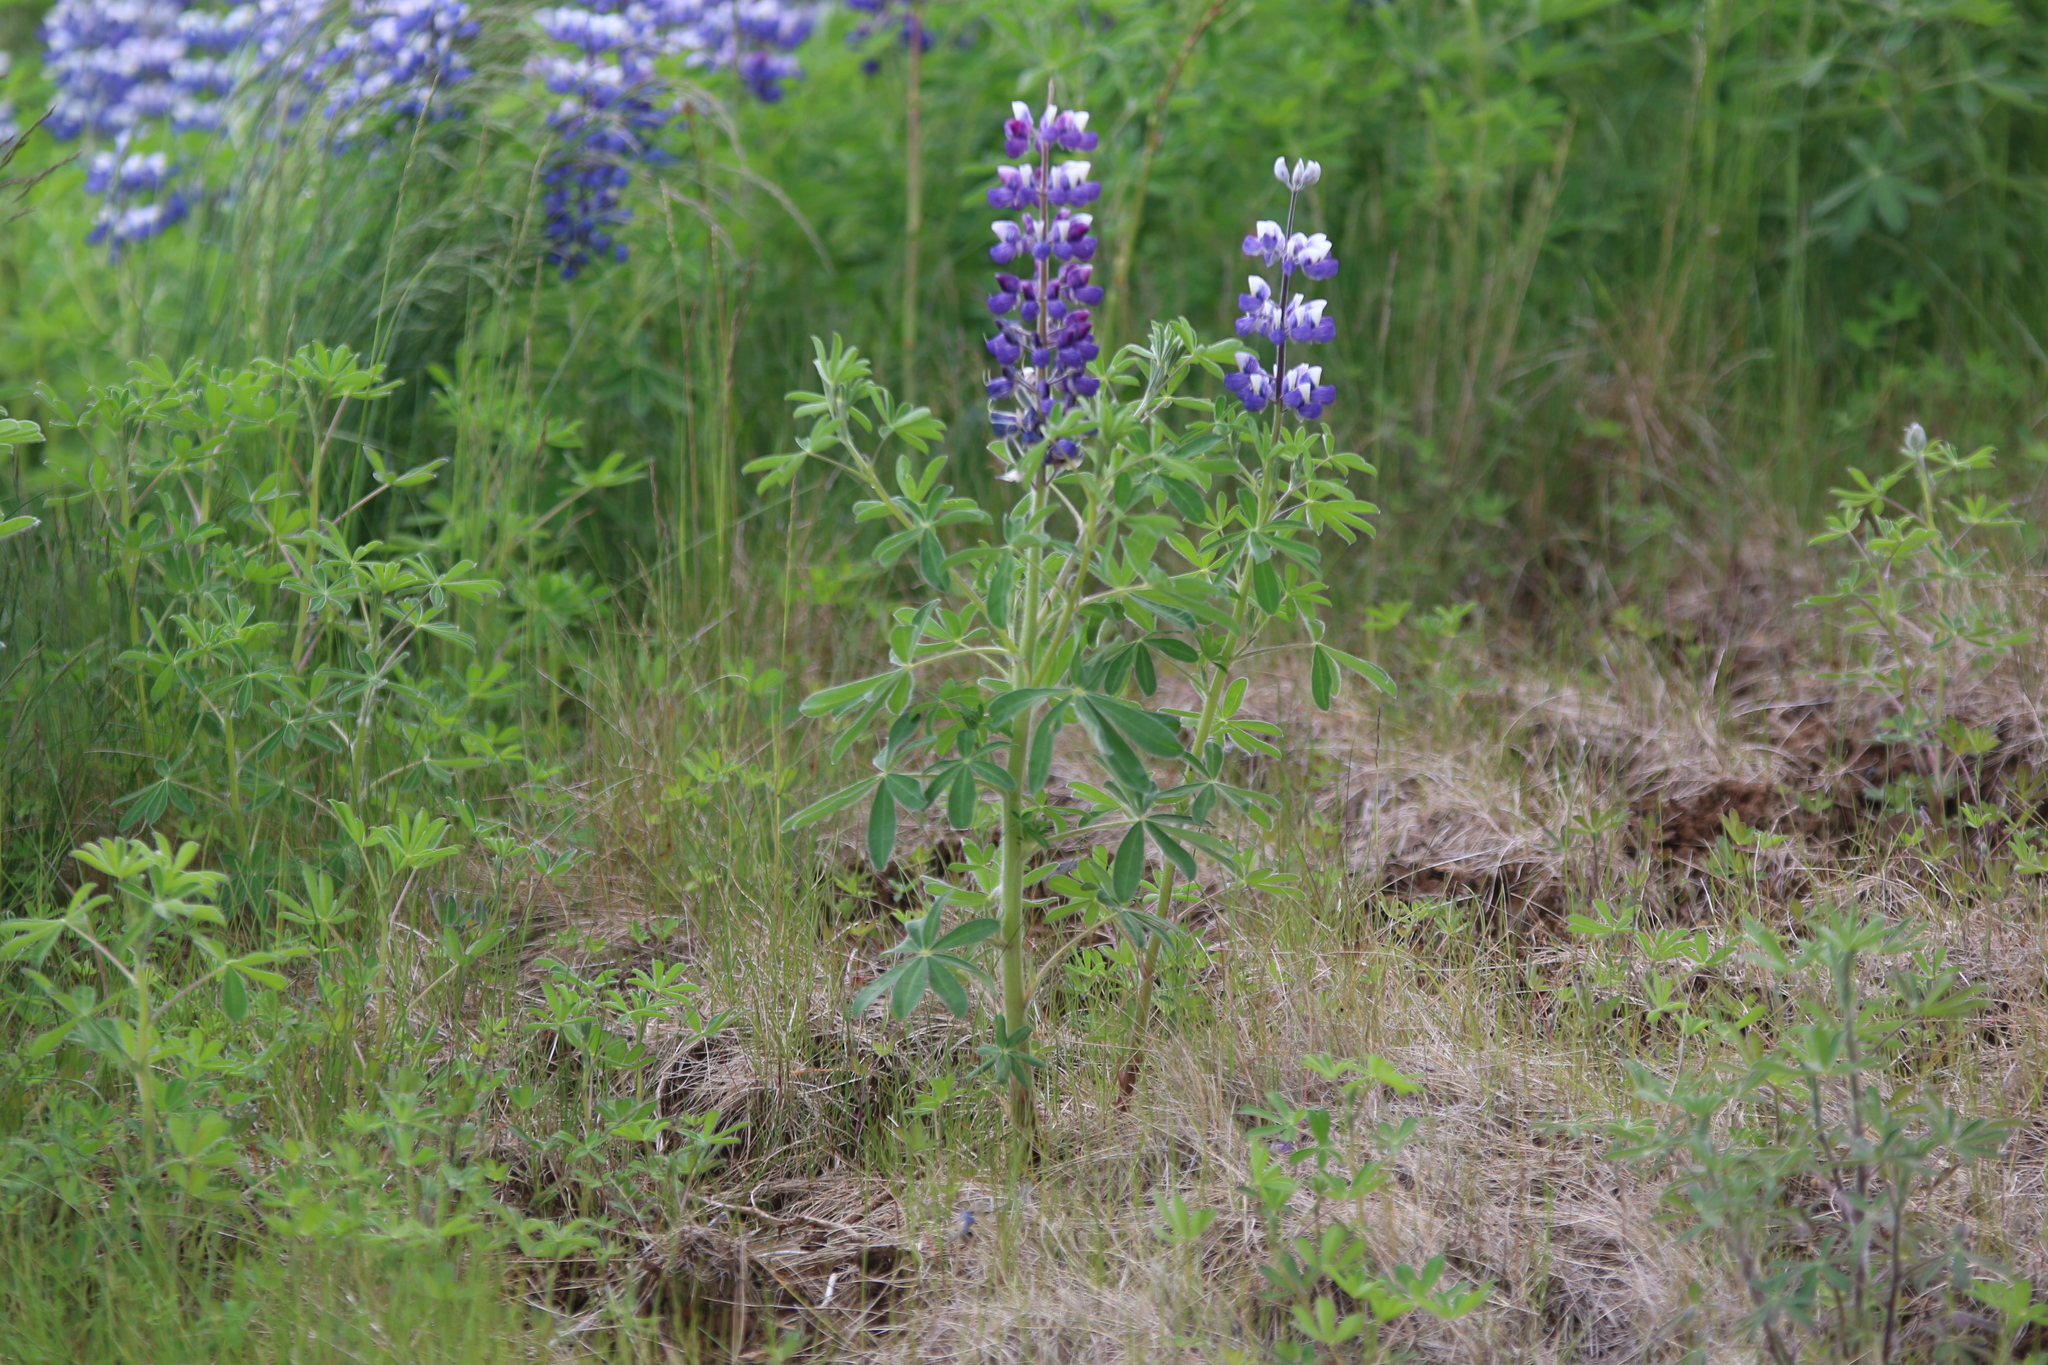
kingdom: Plantae
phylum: Tracheophyta
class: Magnoliopsida
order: Fabales
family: Fabaceae
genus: Lupinus
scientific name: Lupinus nootkatensis
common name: Nootka lupine
